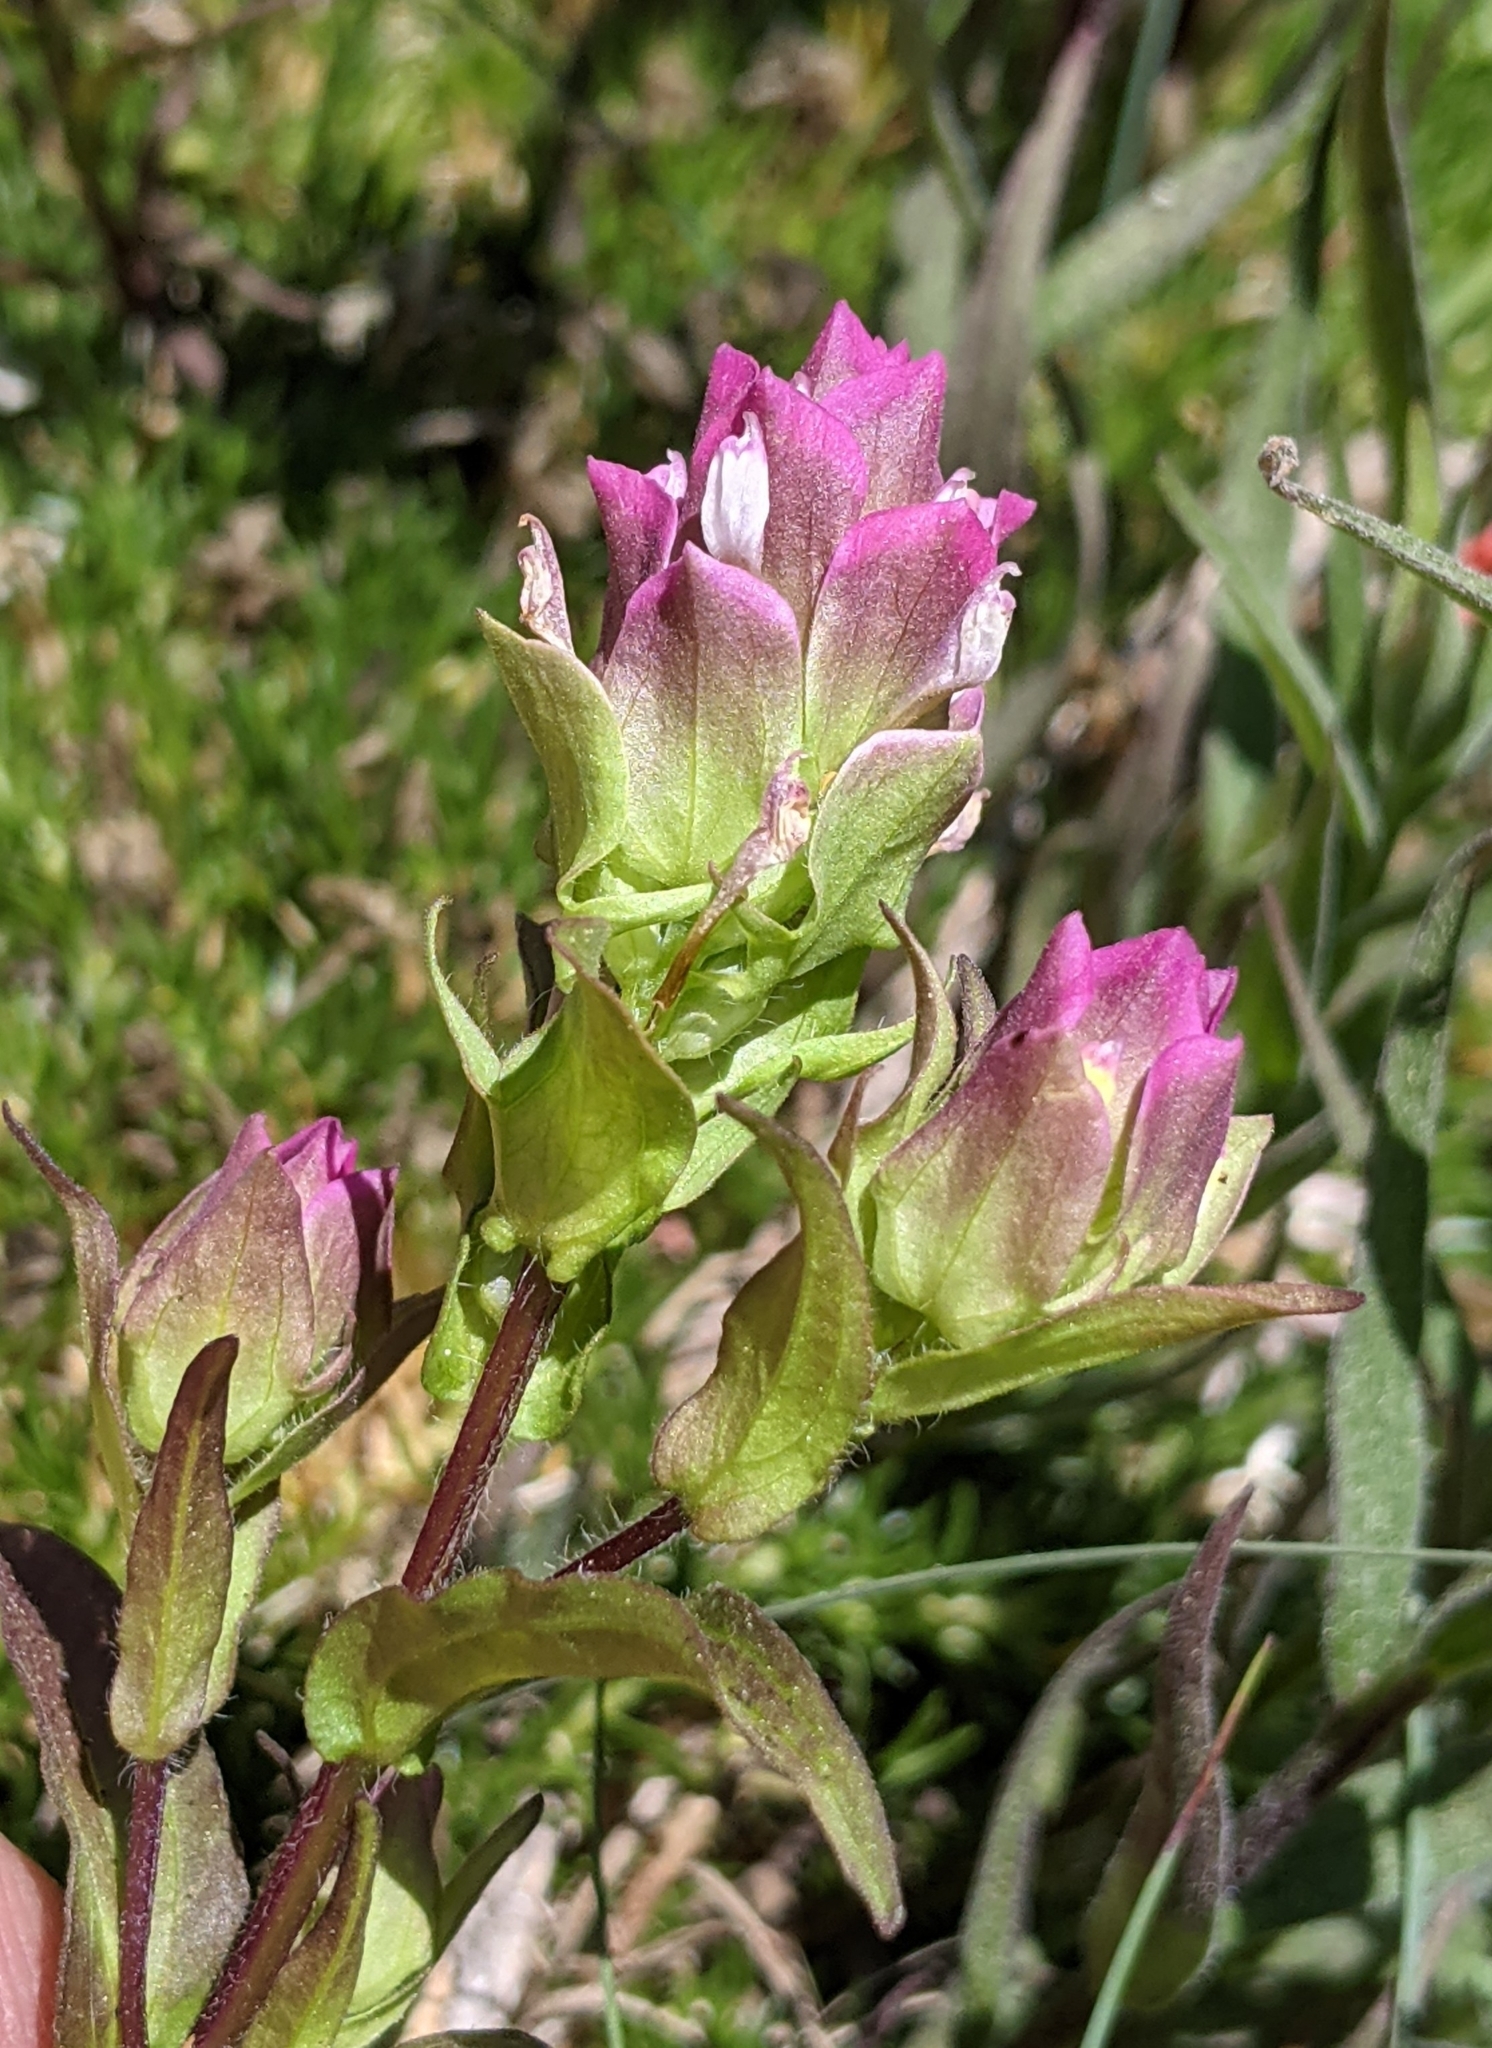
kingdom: Plantae
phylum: Tracheophyta
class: Magnoliopsida
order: Lamiales
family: Orobanchaceae
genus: Orthocarpus
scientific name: Orthocarpus imbricatus
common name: Mountain owl's-clover
